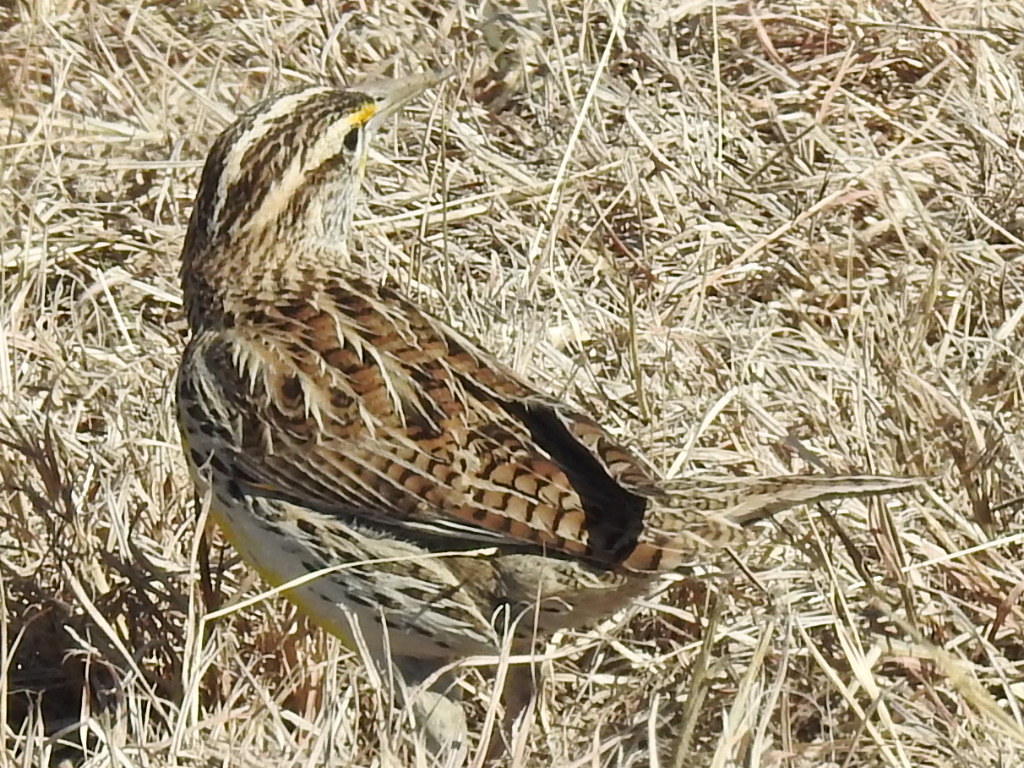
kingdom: Animalia
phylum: Chordata
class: Aves
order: Passeriformes
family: Icteridae
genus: Sturnella
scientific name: Sturnella neglecta
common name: Western meadowlark
